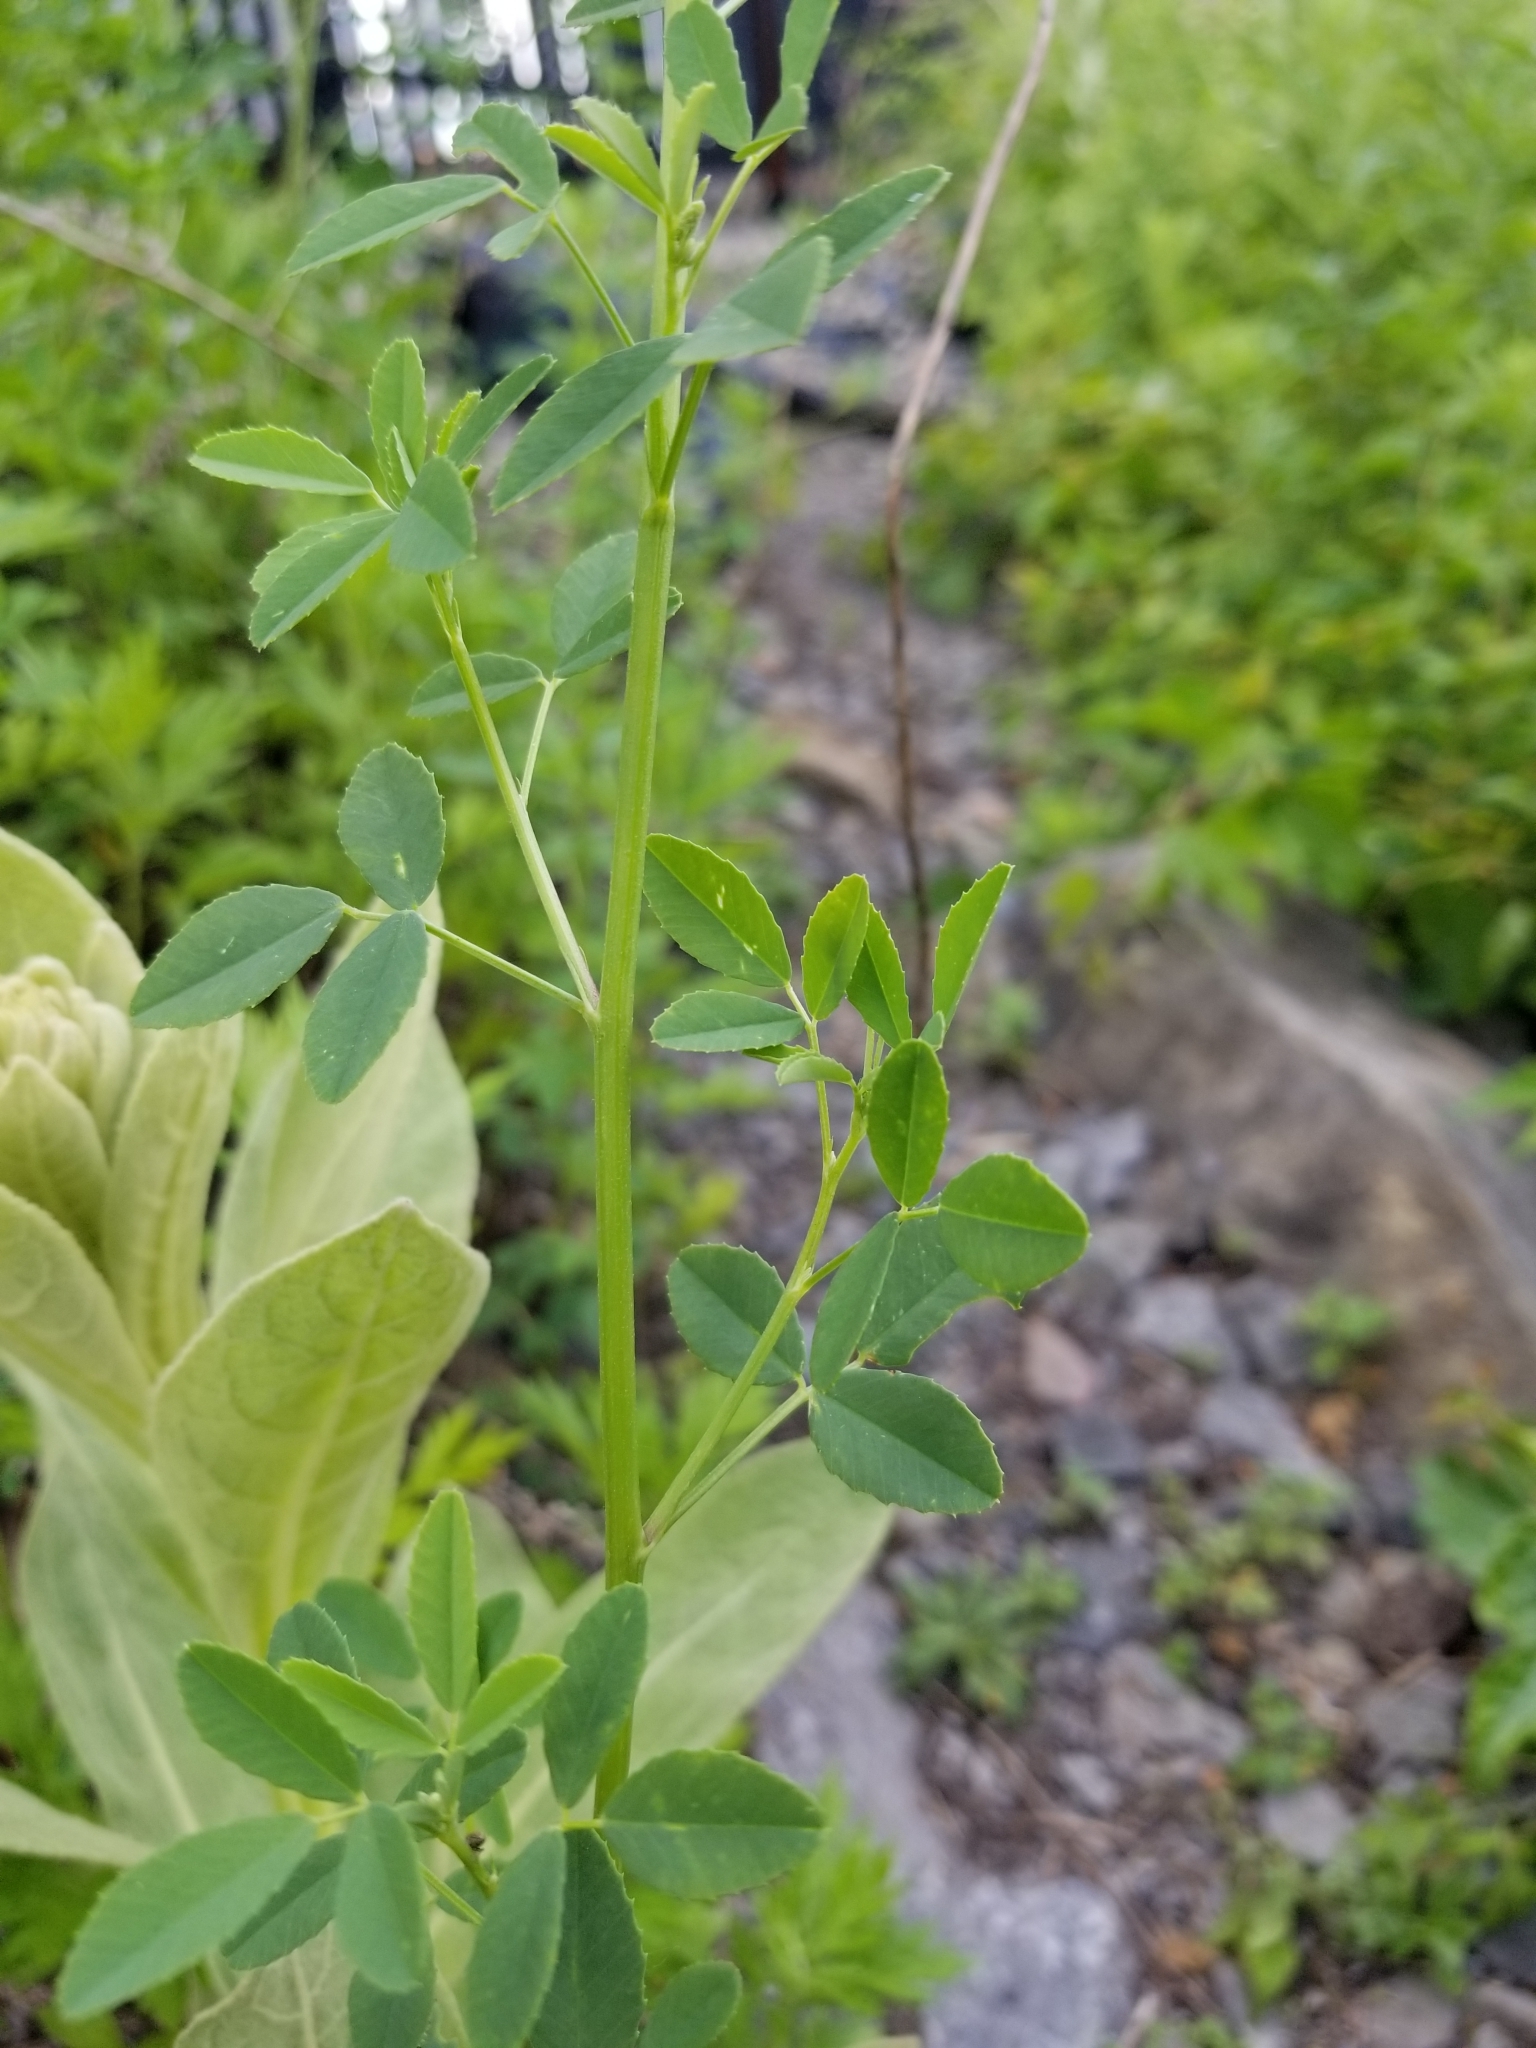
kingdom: Plantae
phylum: Tracheophyta
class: Magnoliopsida
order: Fabales
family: Fabaceae
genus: Melilotus
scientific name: Melilotus albus
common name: White melilot
